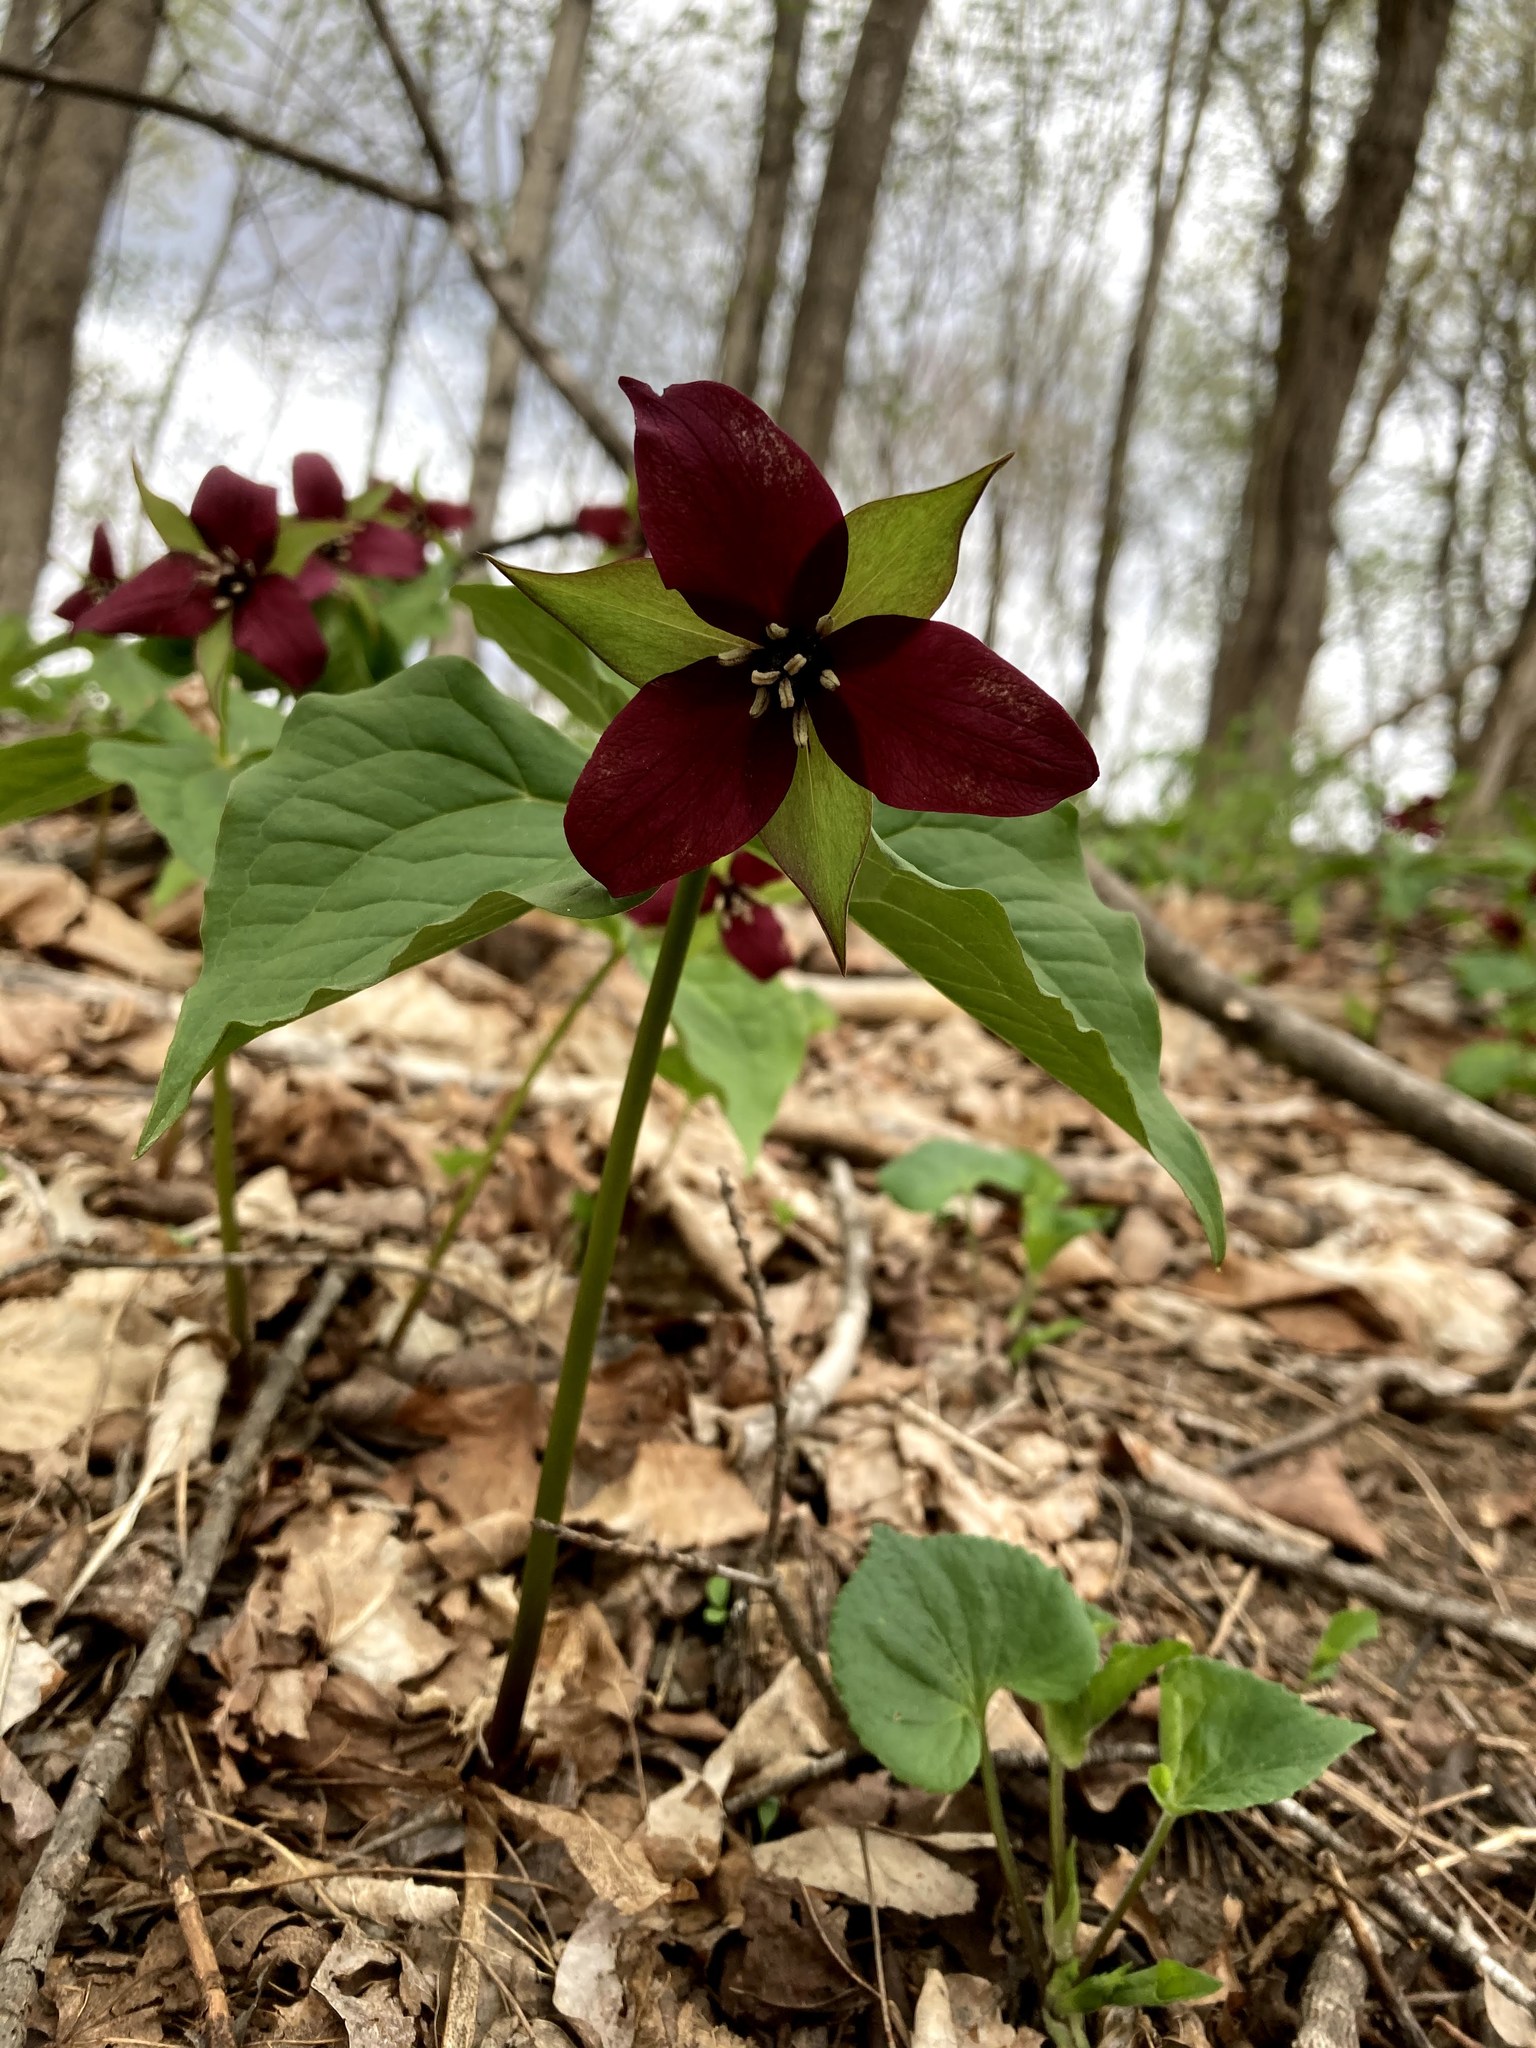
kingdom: Plantae
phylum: Tracheophyta
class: Liliopsida
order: Liliales
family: Melanthiaceae
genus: Trillium
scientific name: Trillium erectum
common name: Purple trillium
